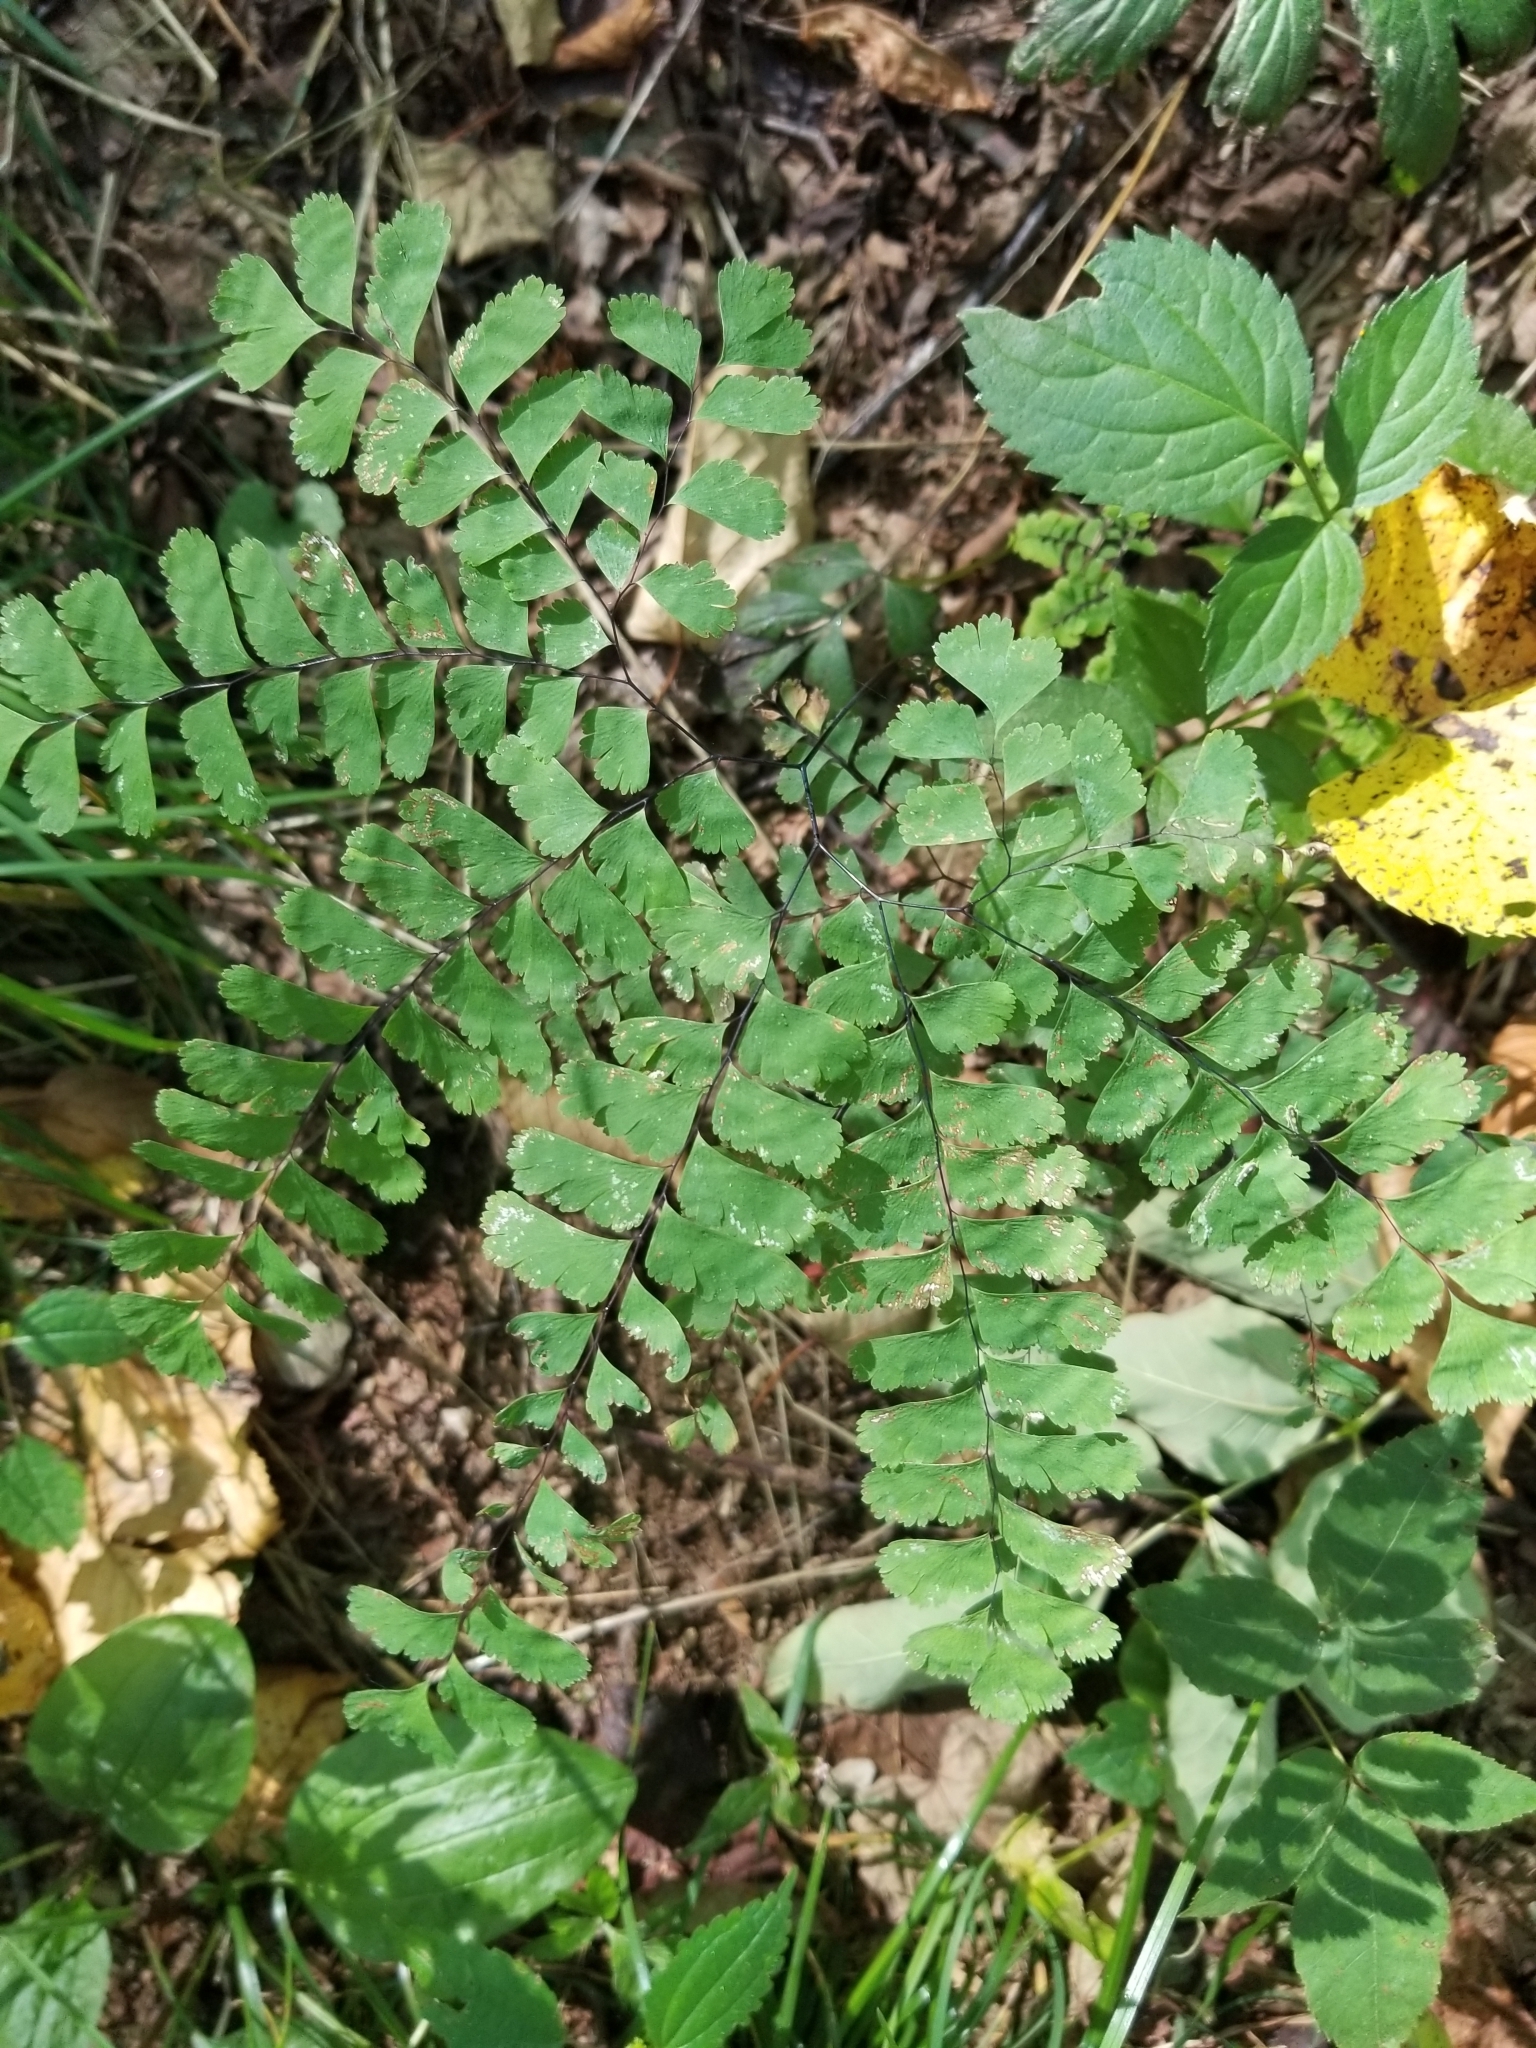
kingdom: Plantae
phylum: Tracheophyta
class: Polypodiopsida
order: Polypodiales
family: Pteridaceae
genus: Adiantum
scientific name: Adiantum pedatum
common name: Five-finger fern
